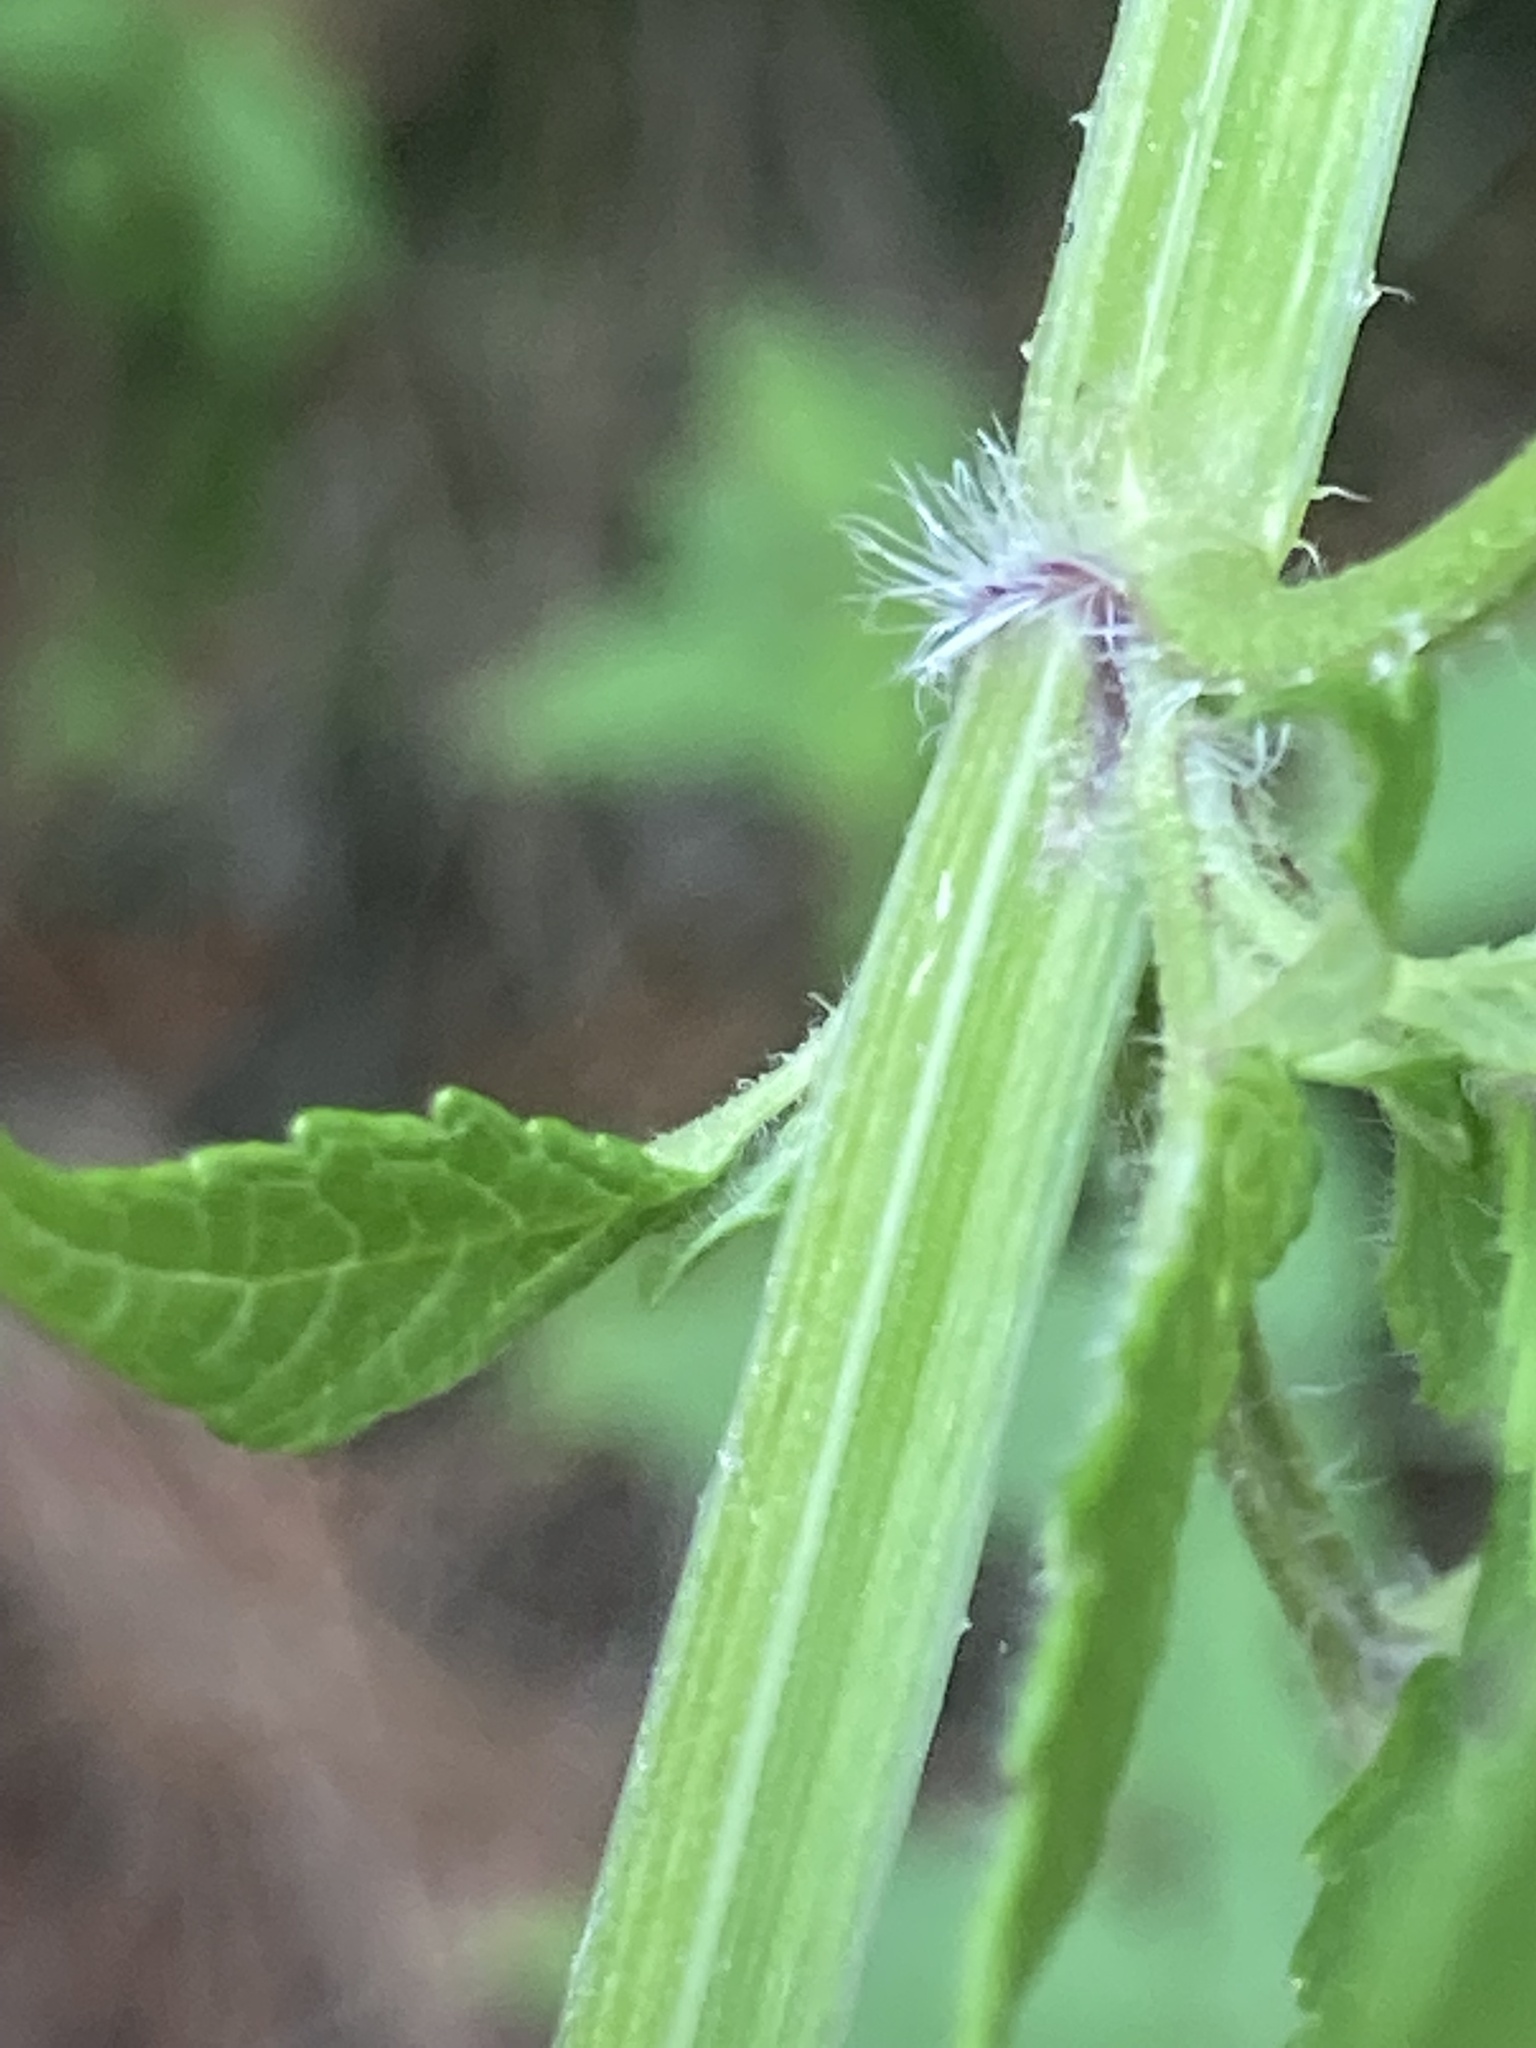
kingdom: Plantae
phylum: Tracheophyta
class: Magnoliopsida
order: Lamiales
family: Lamiaceae
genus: Cedronella
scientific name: Cedronella canariensis
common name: Canary islands balm
